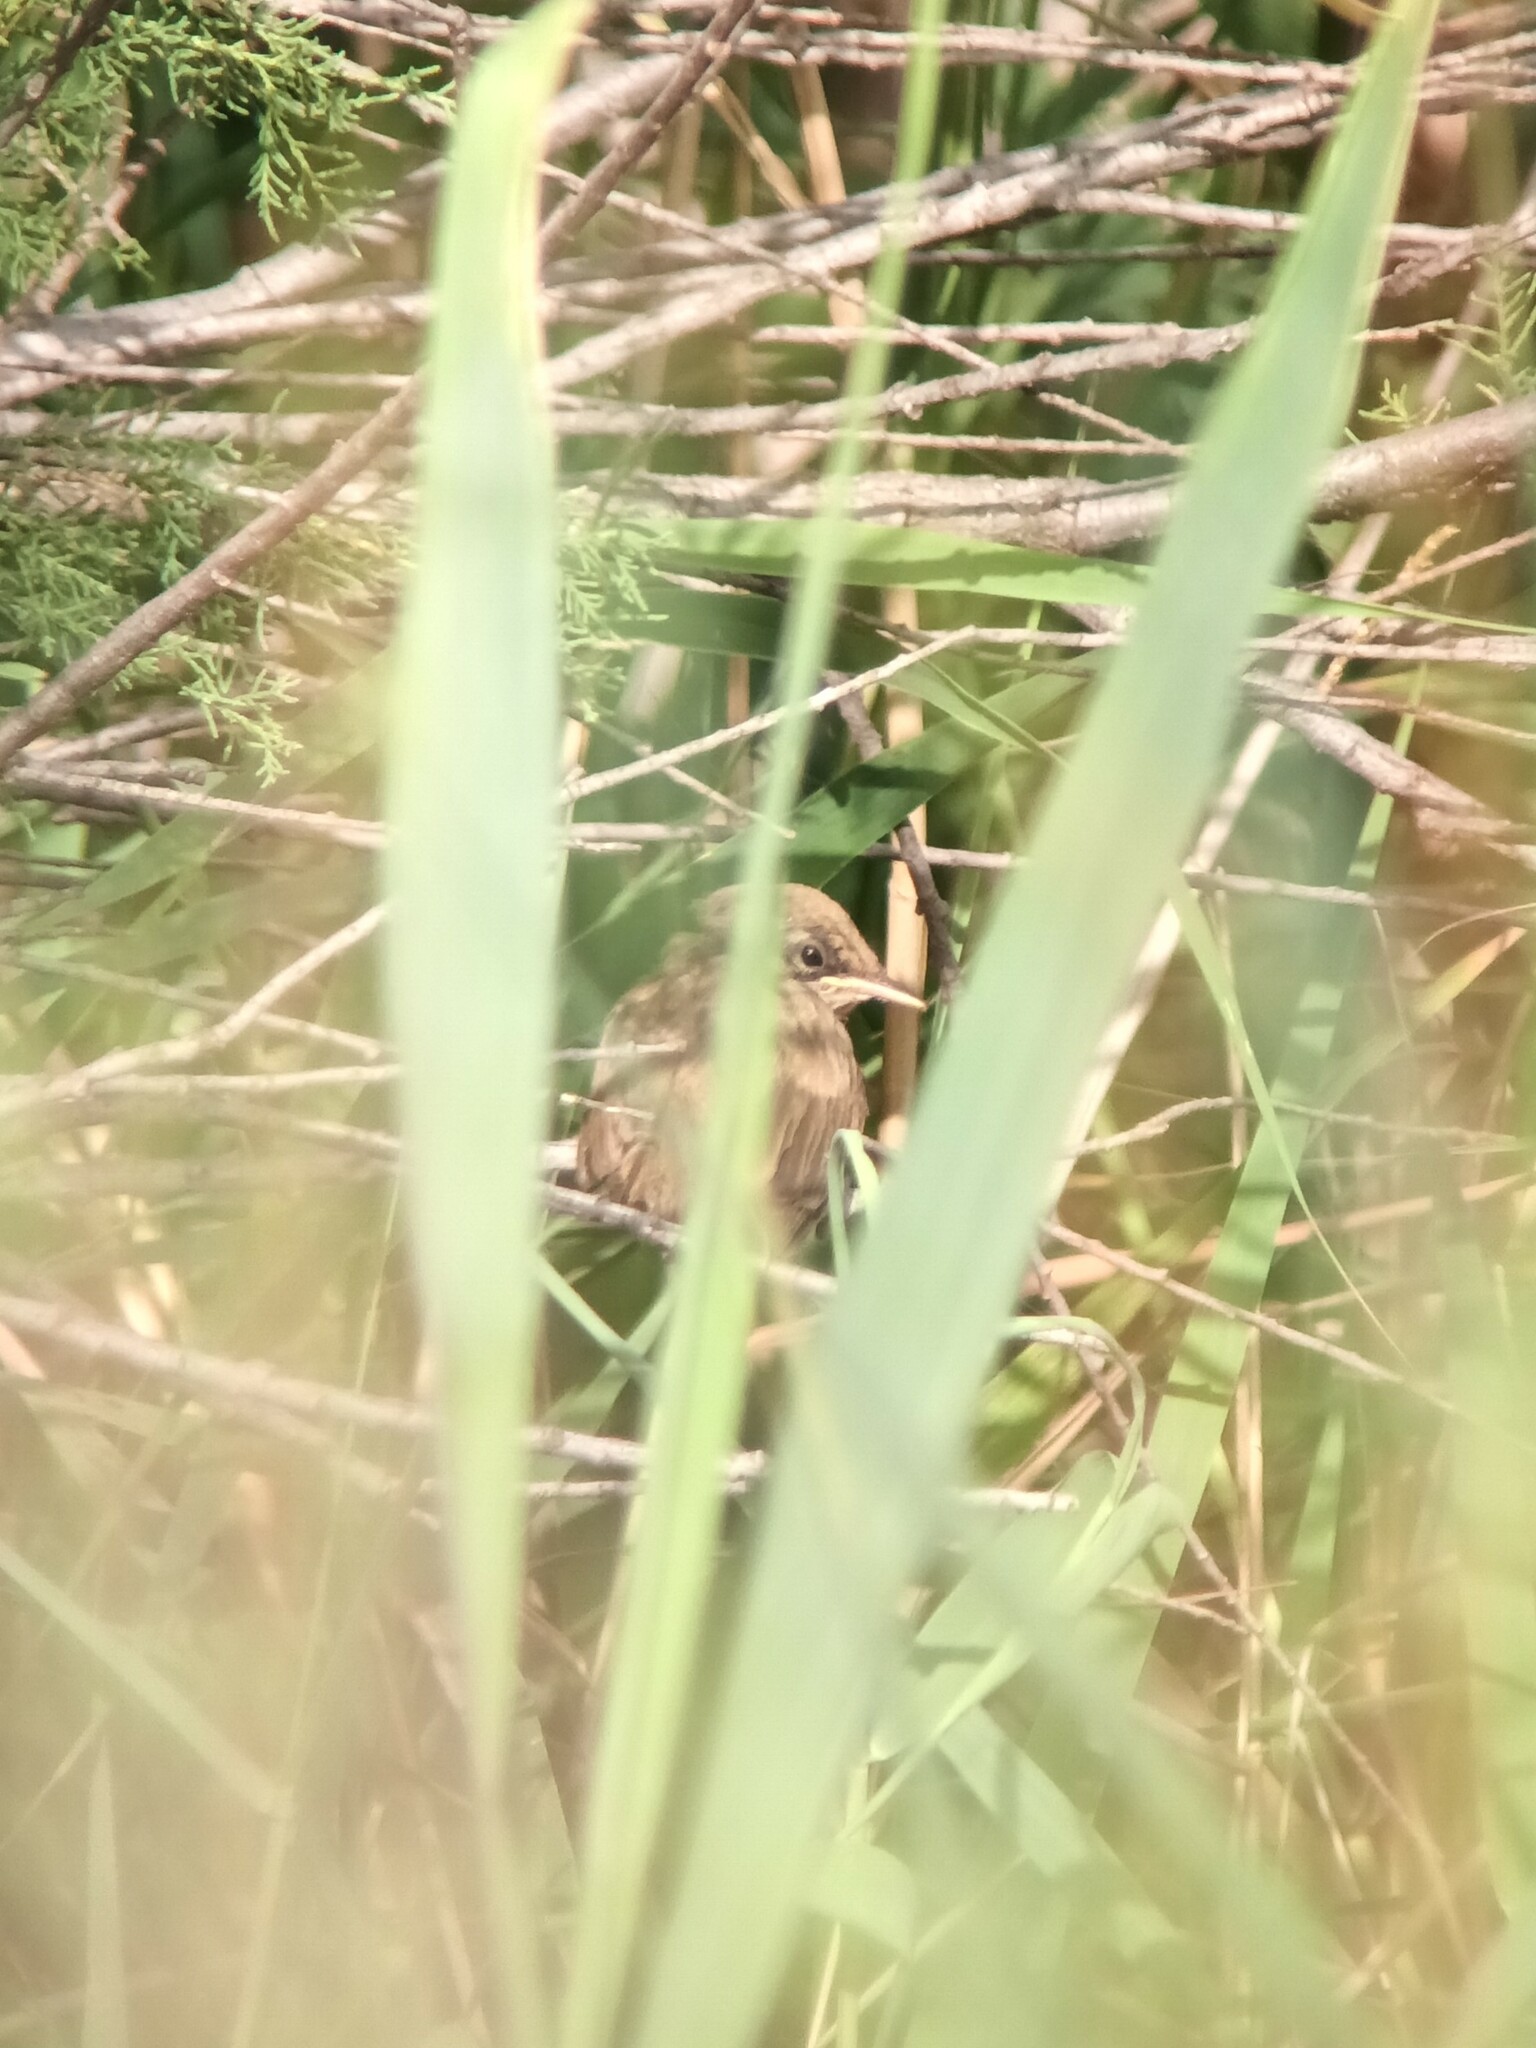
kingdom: Animalia
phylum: Chordata
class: Aves
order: Passeriformes
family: Acrocephalidae
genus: Acrocephalus
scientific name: Acrocephalus scirpaceus
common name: Eurasian reed warbler
